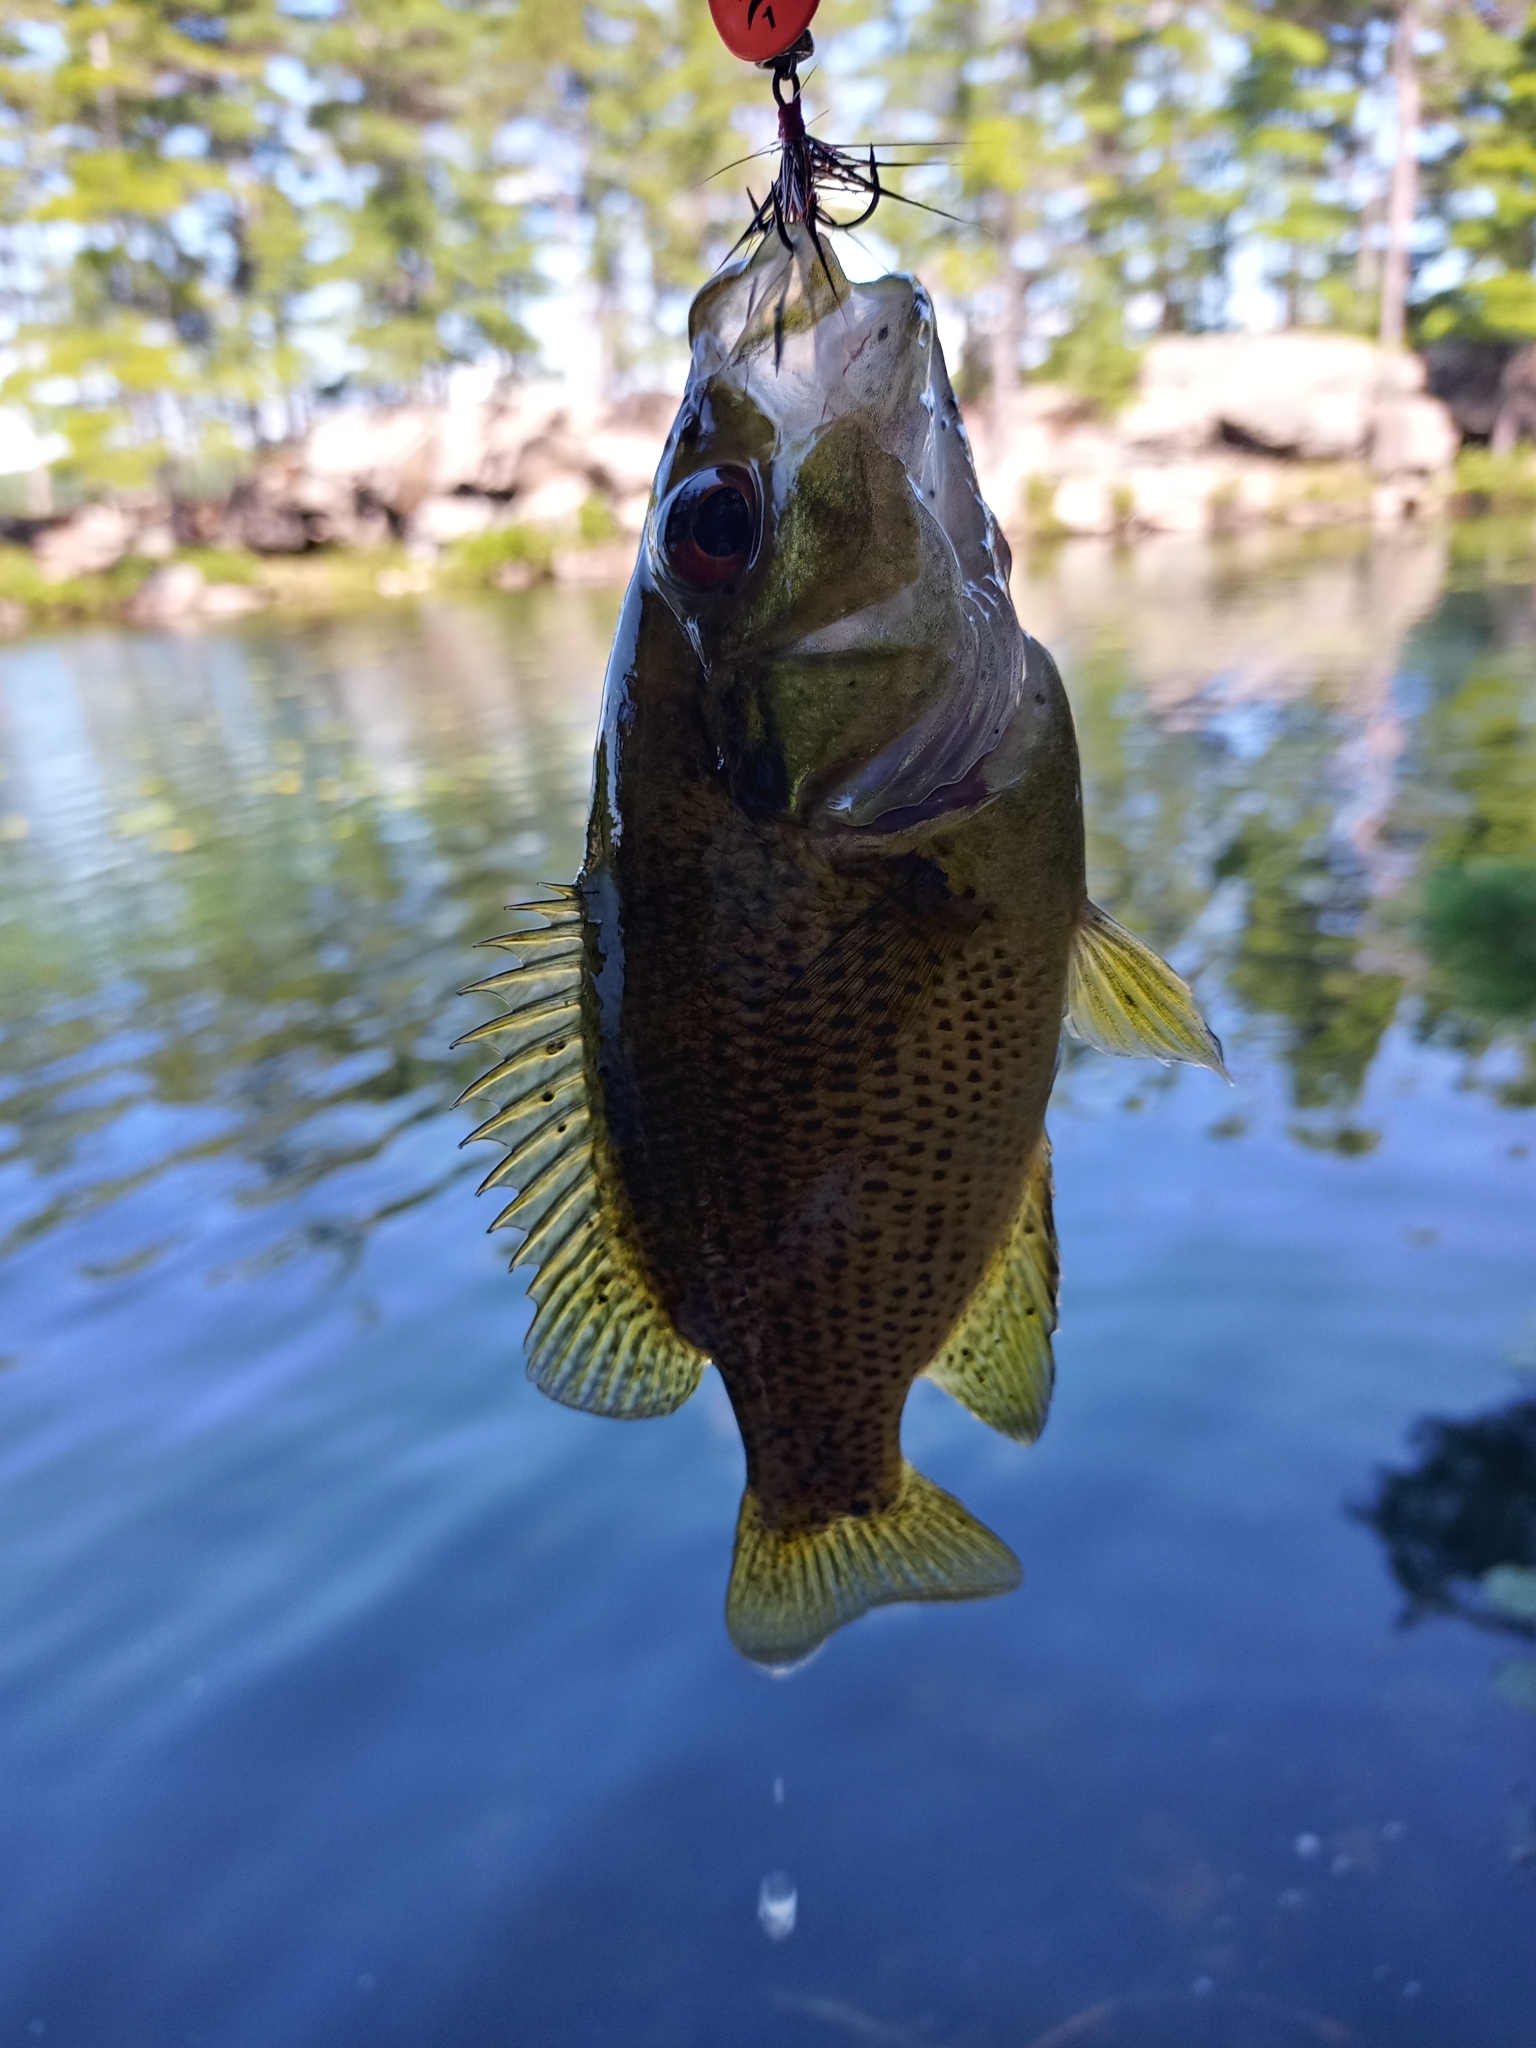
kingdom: Animalia
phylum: Chordata
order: Perciformes
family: Centrarchidae
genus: Ambloplites
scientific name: Ambloplites rupestris
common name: Rock bass
